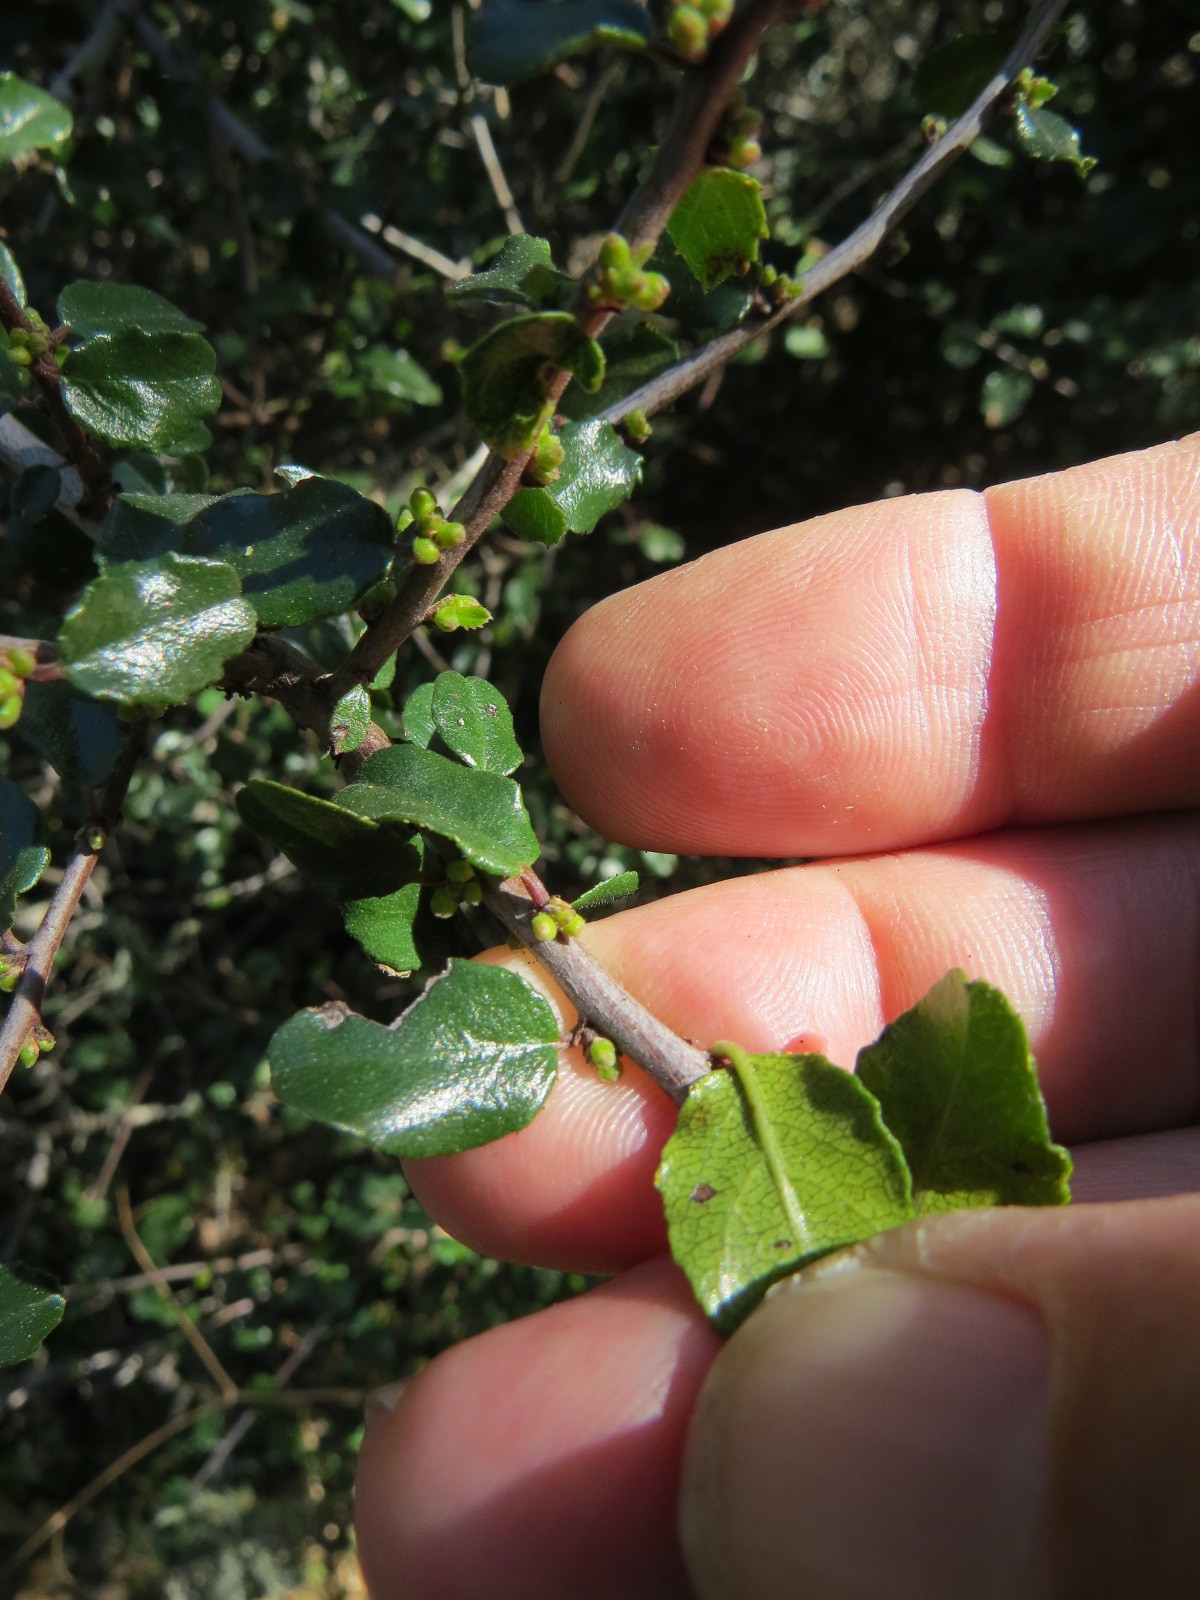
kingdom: Plantae
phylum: Tracheophyta
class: Magnoliopsida
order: Rosales
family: Rhamnaceae
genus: Endotropis
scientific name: Endotropis crocea
